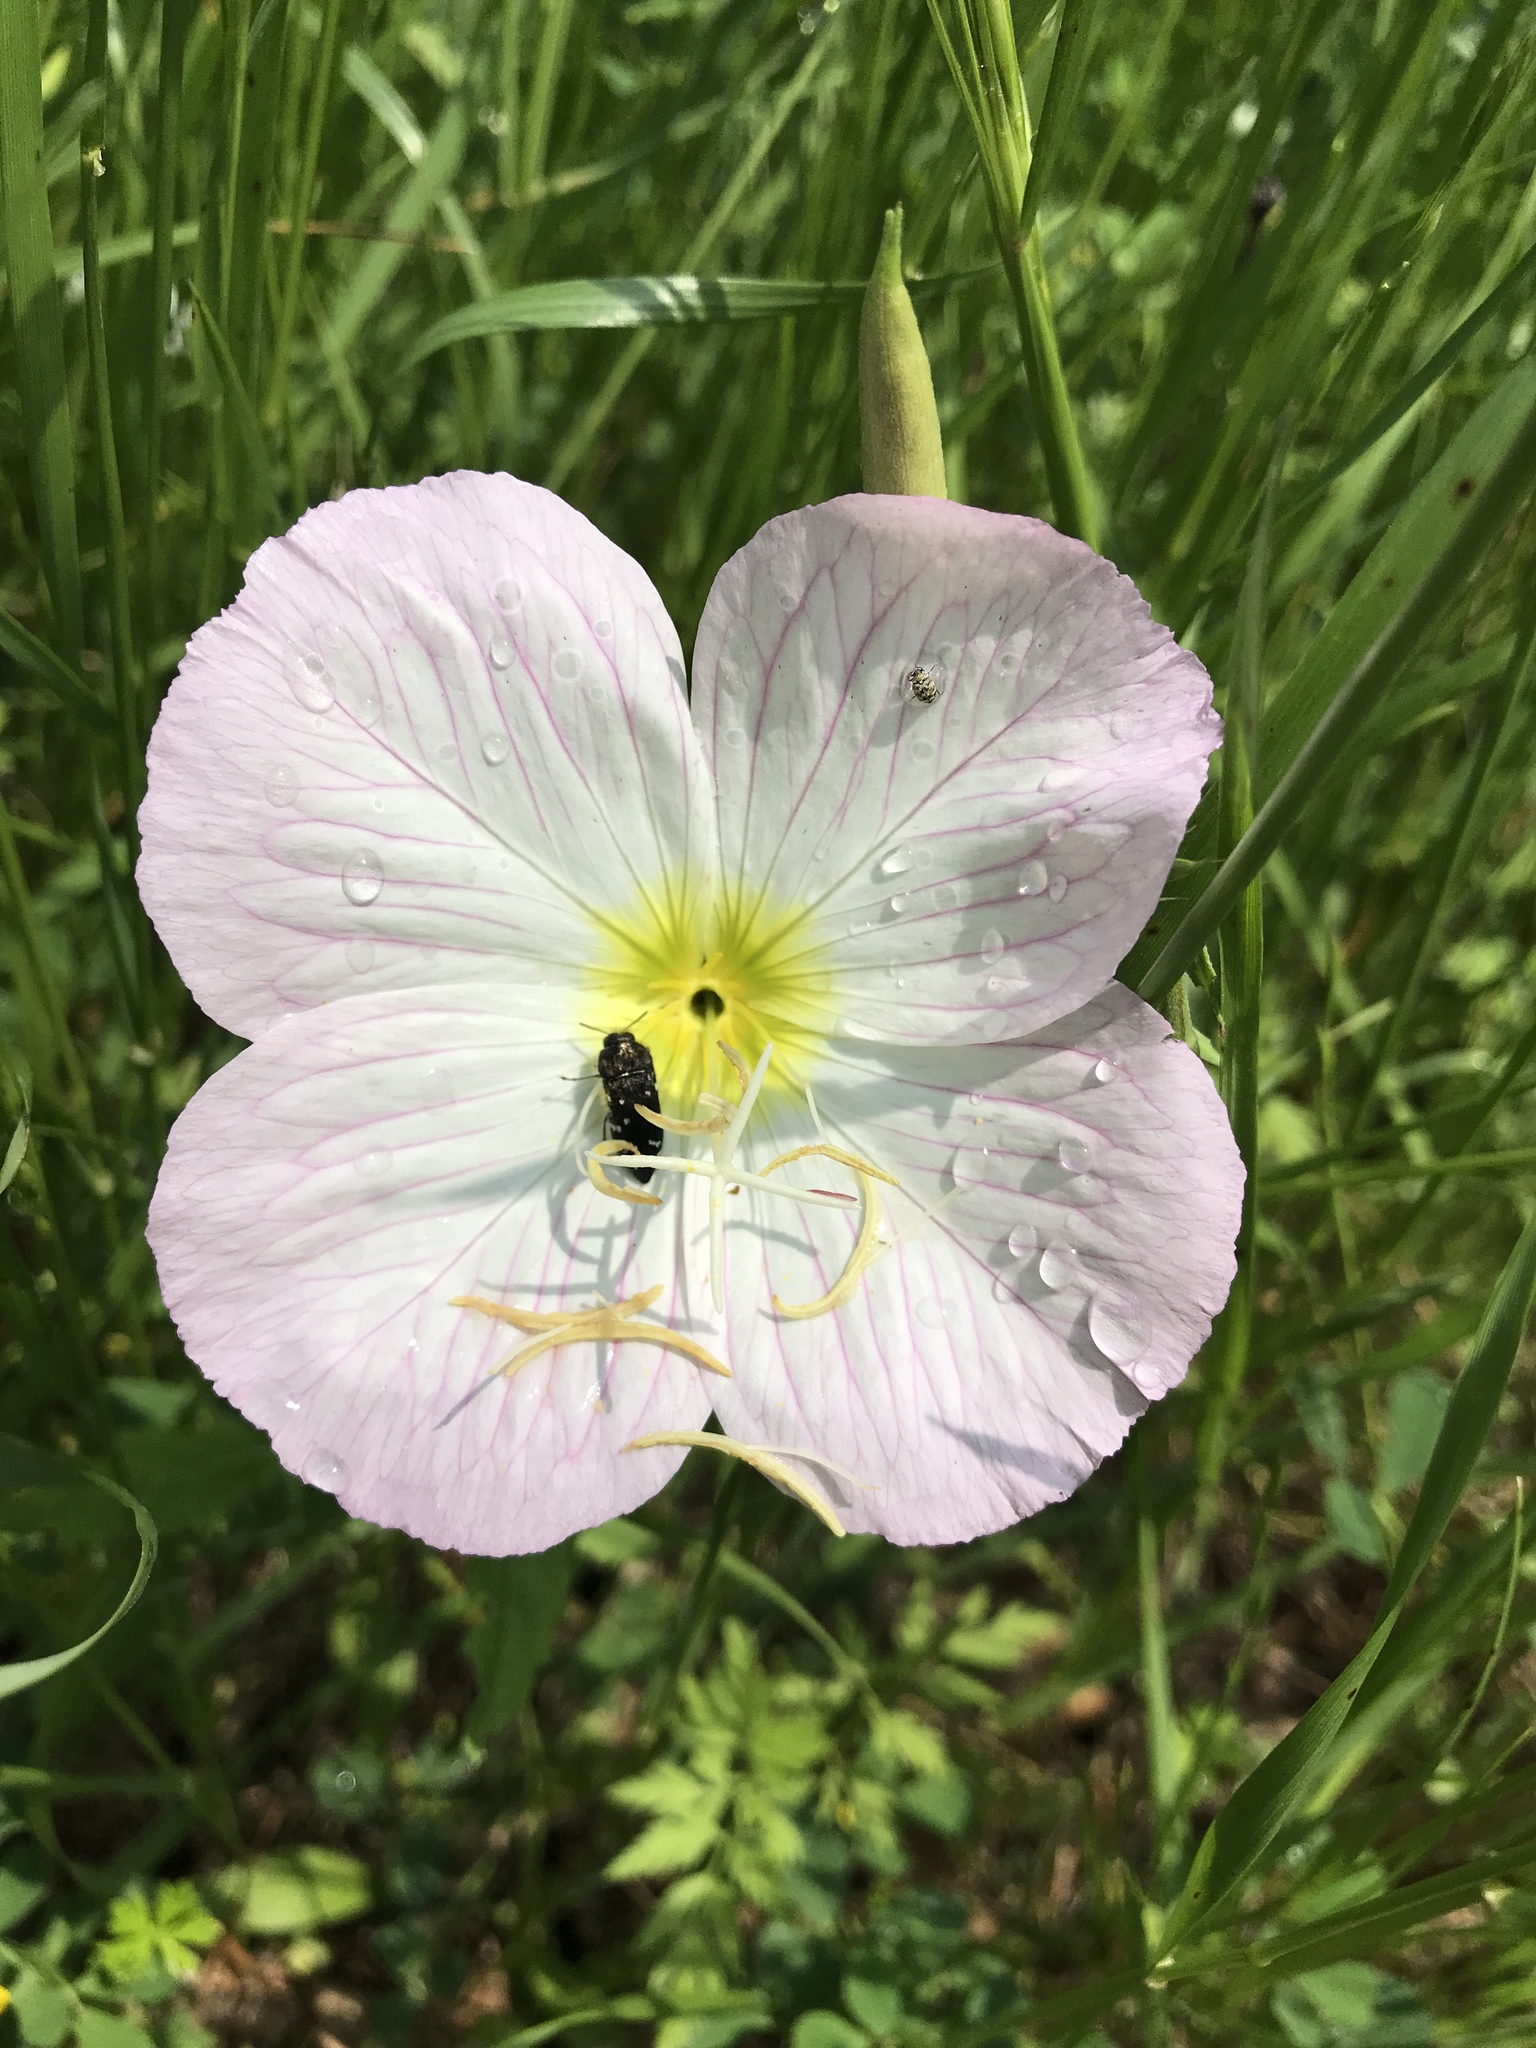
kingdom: Plantae
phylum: Tracheophyta
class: Magnoliopsida
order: Myrtales
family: Onagraceae
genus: Oenothera
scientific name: Oenothera speciosa
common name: White evening-primrose
